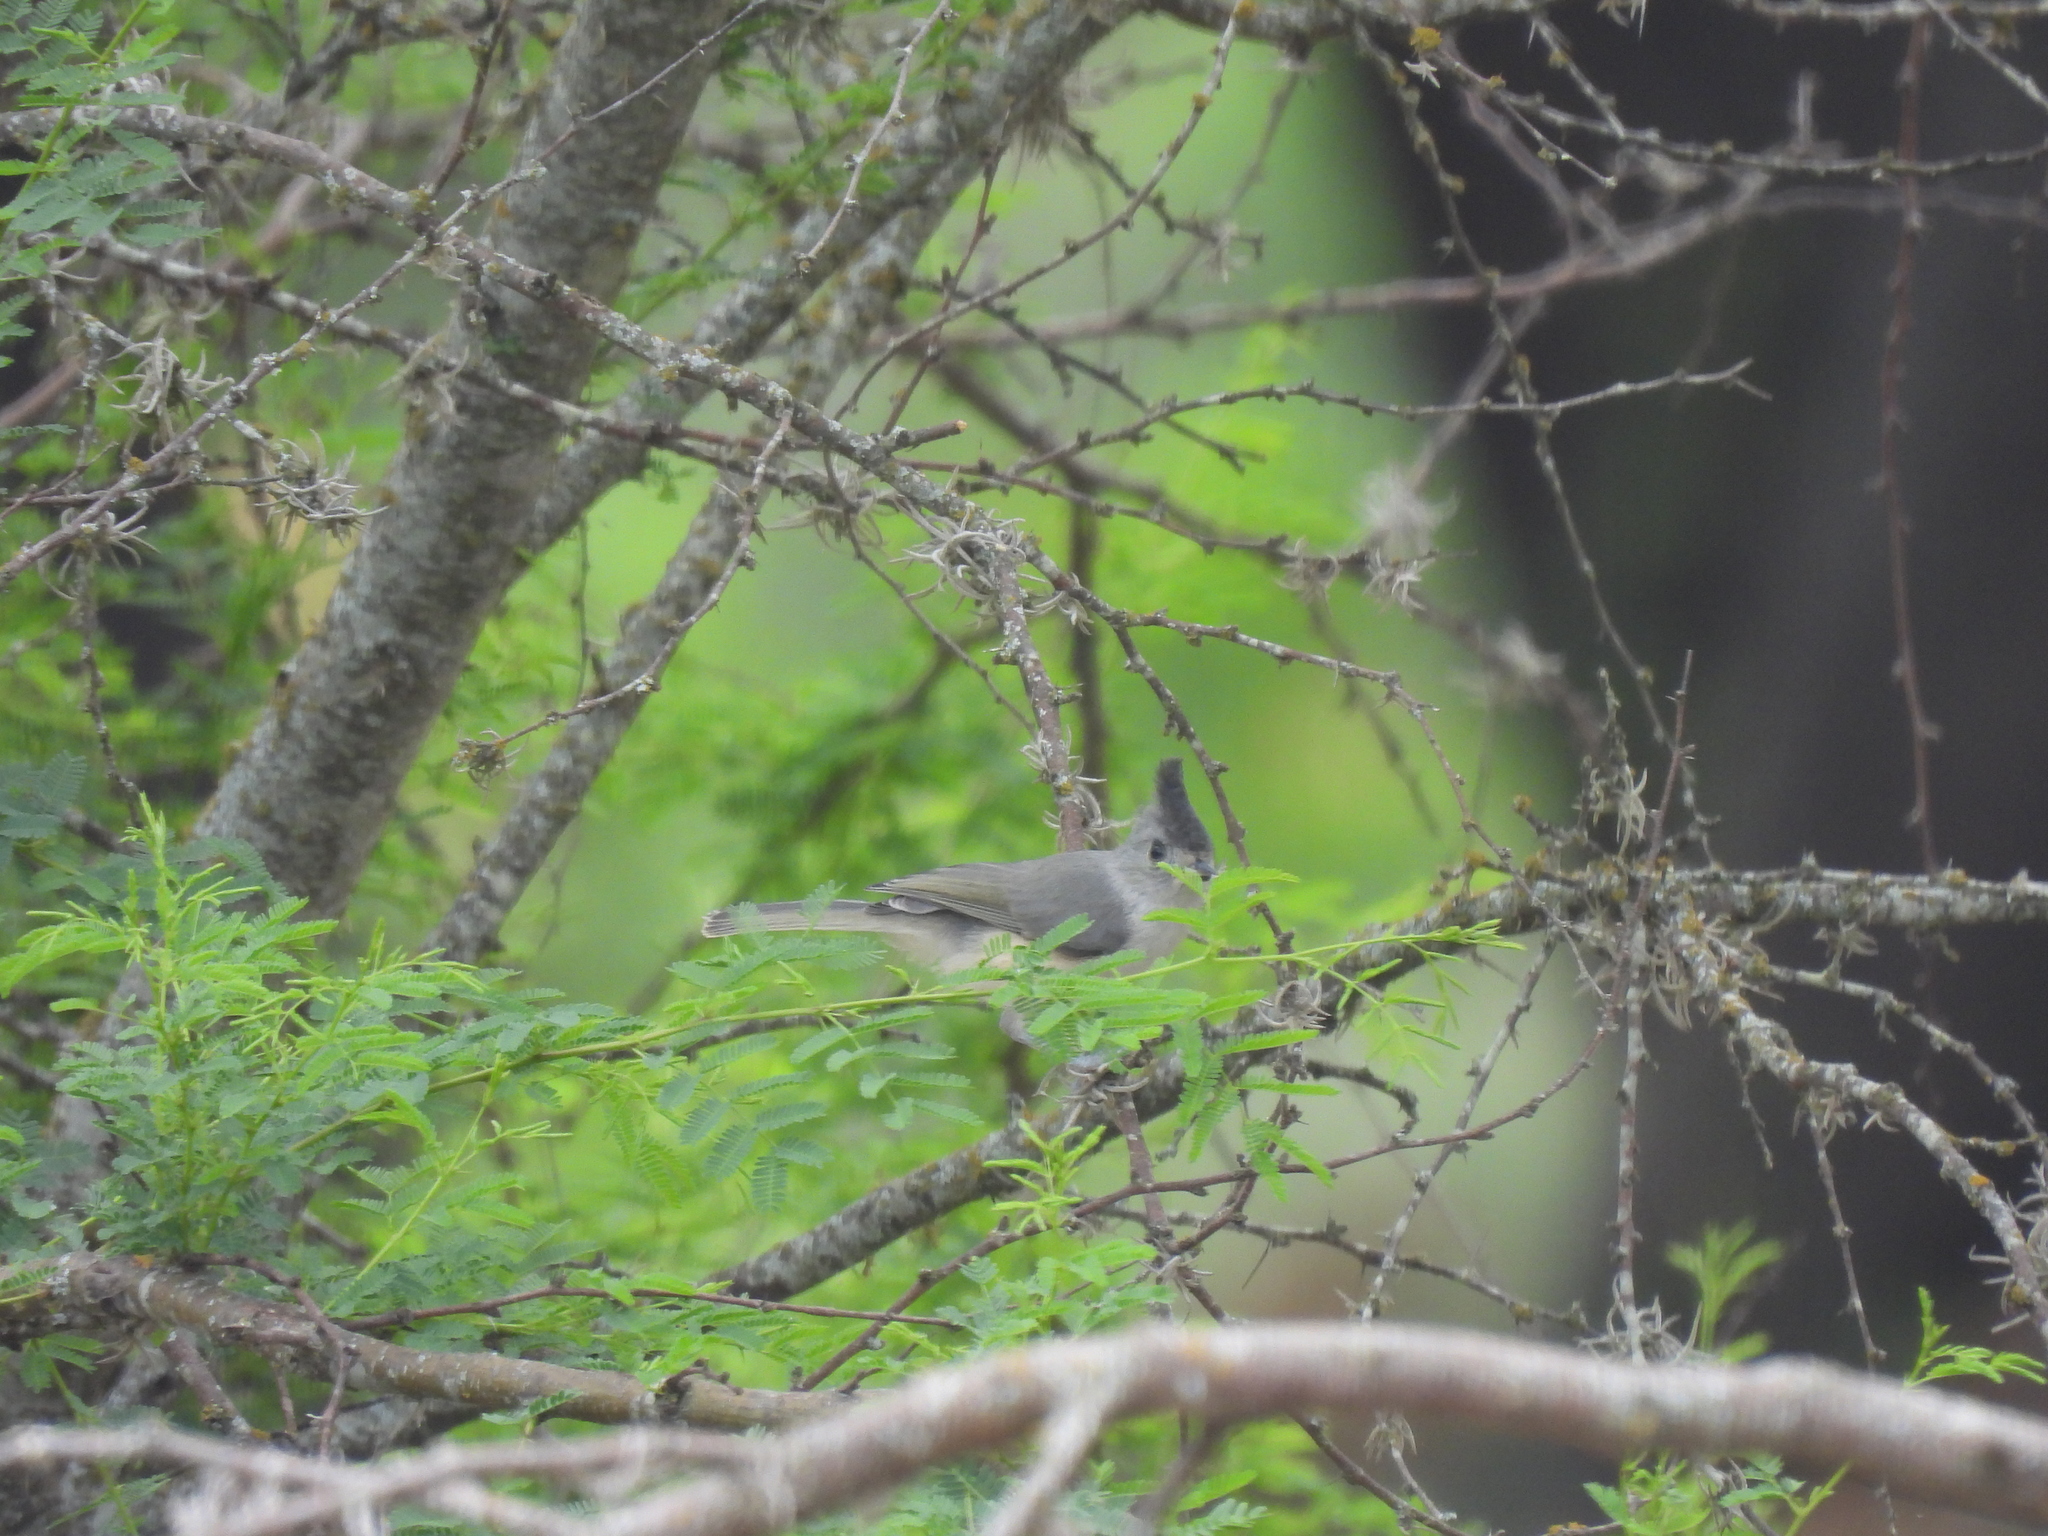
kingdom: Animalia
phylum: Chordata
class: Aves
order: Passeriformes
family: Paridae
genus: Baeolophus
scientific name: Baeolophus atricristatus
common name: Black-crested titmouse
